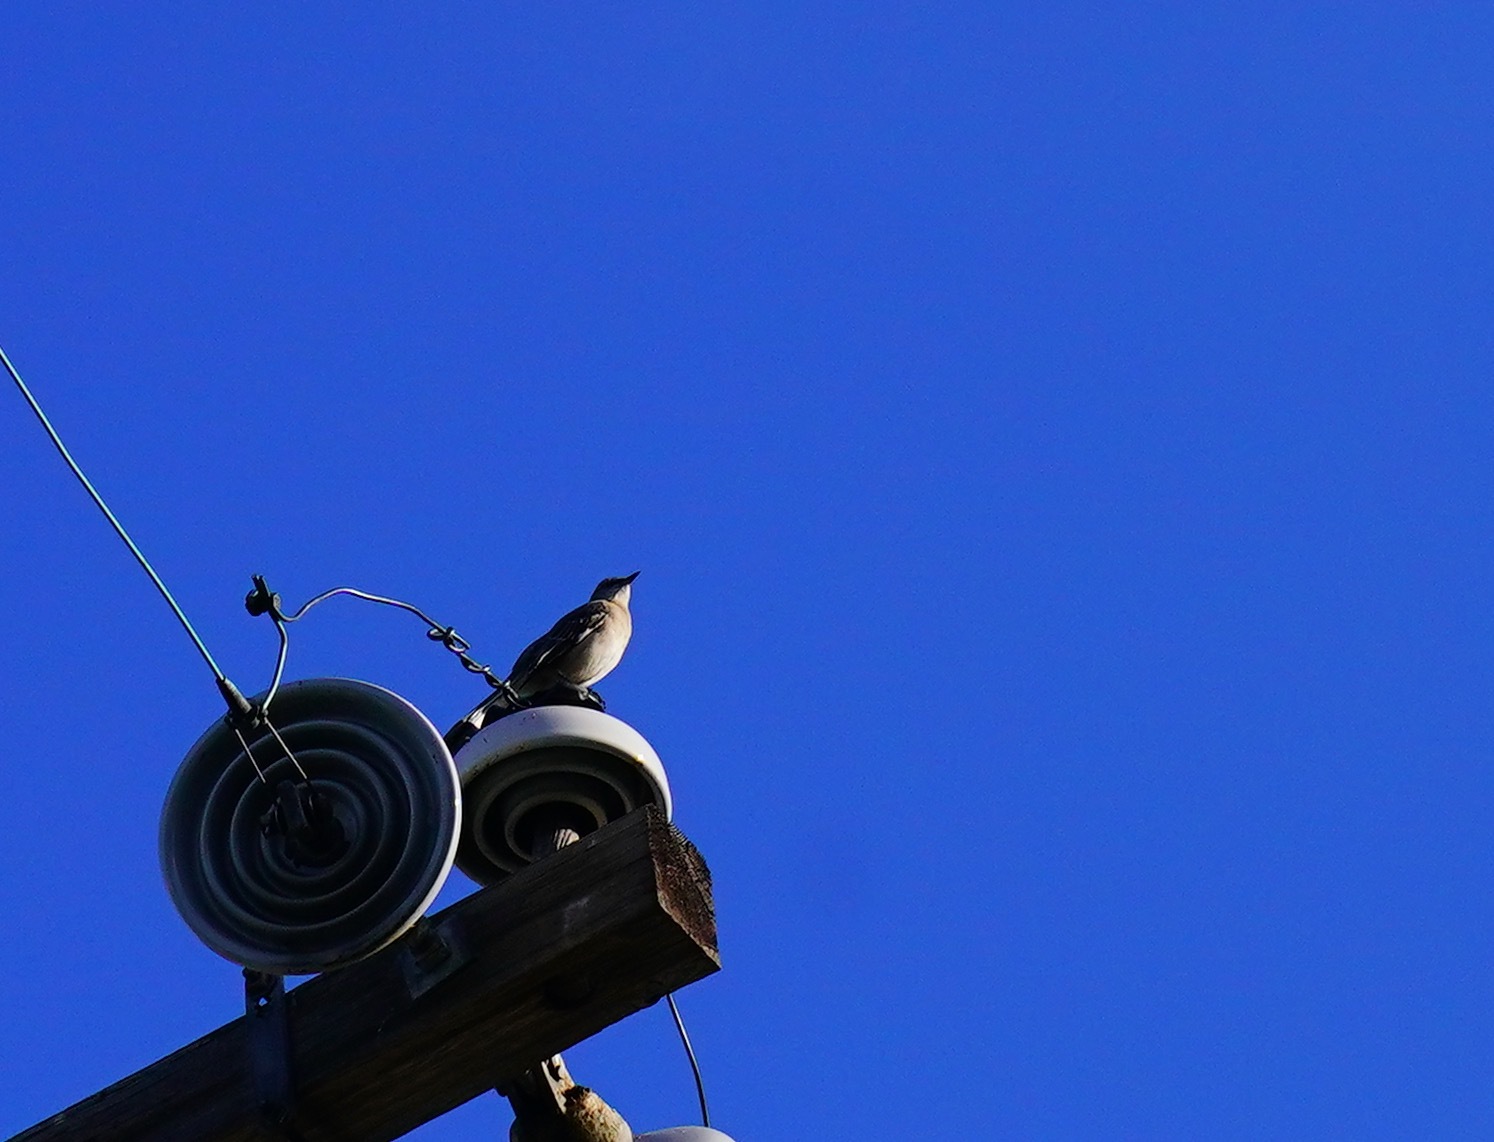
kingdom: Animalia
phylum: Chordata
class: Aves
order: Passeriformes
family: Mimidae
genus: Mimus
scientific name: Mimus polyglottos
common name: Northern mockingbird
